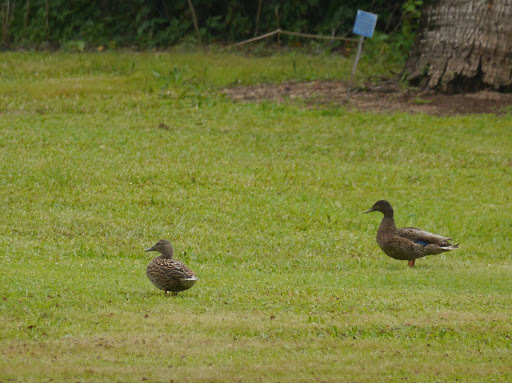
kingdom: Animalia
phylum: Chordata
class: Aves
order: Anseriformes
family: Anatidae
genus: Anas
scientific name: Anas
